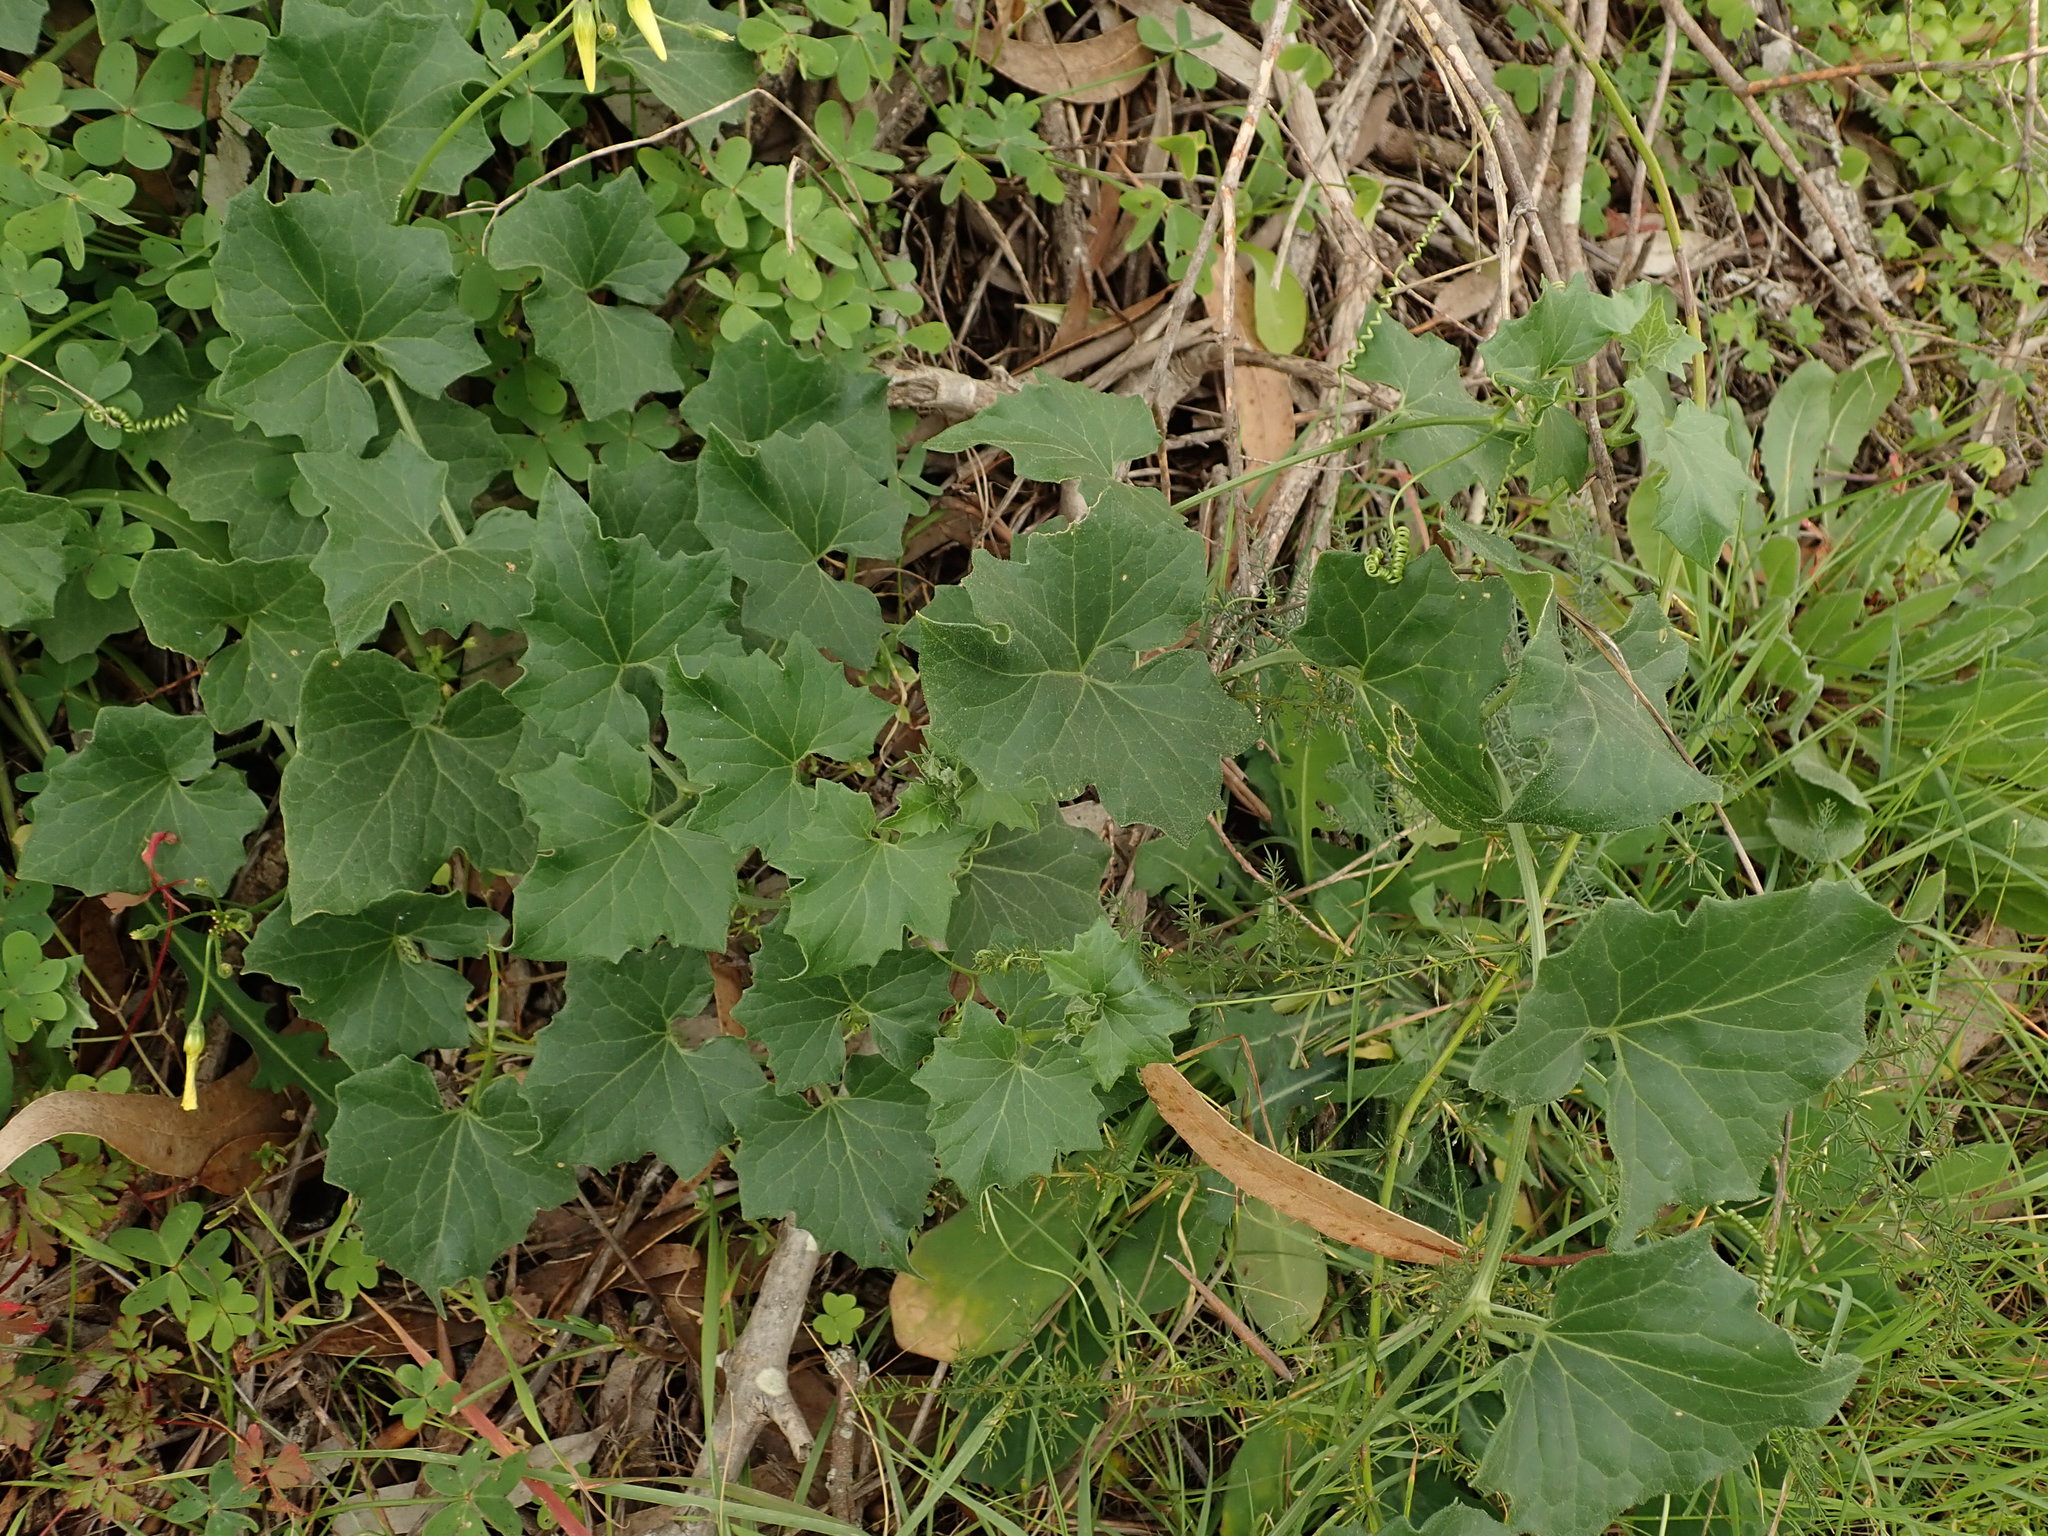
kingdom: Plantae
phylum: Tracheophyta
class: Magnoliopsida
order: Cucurbitales
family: Cucurbitaceae
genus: Bryonia
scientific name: Bryonia cretica
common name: Cretan bryony
